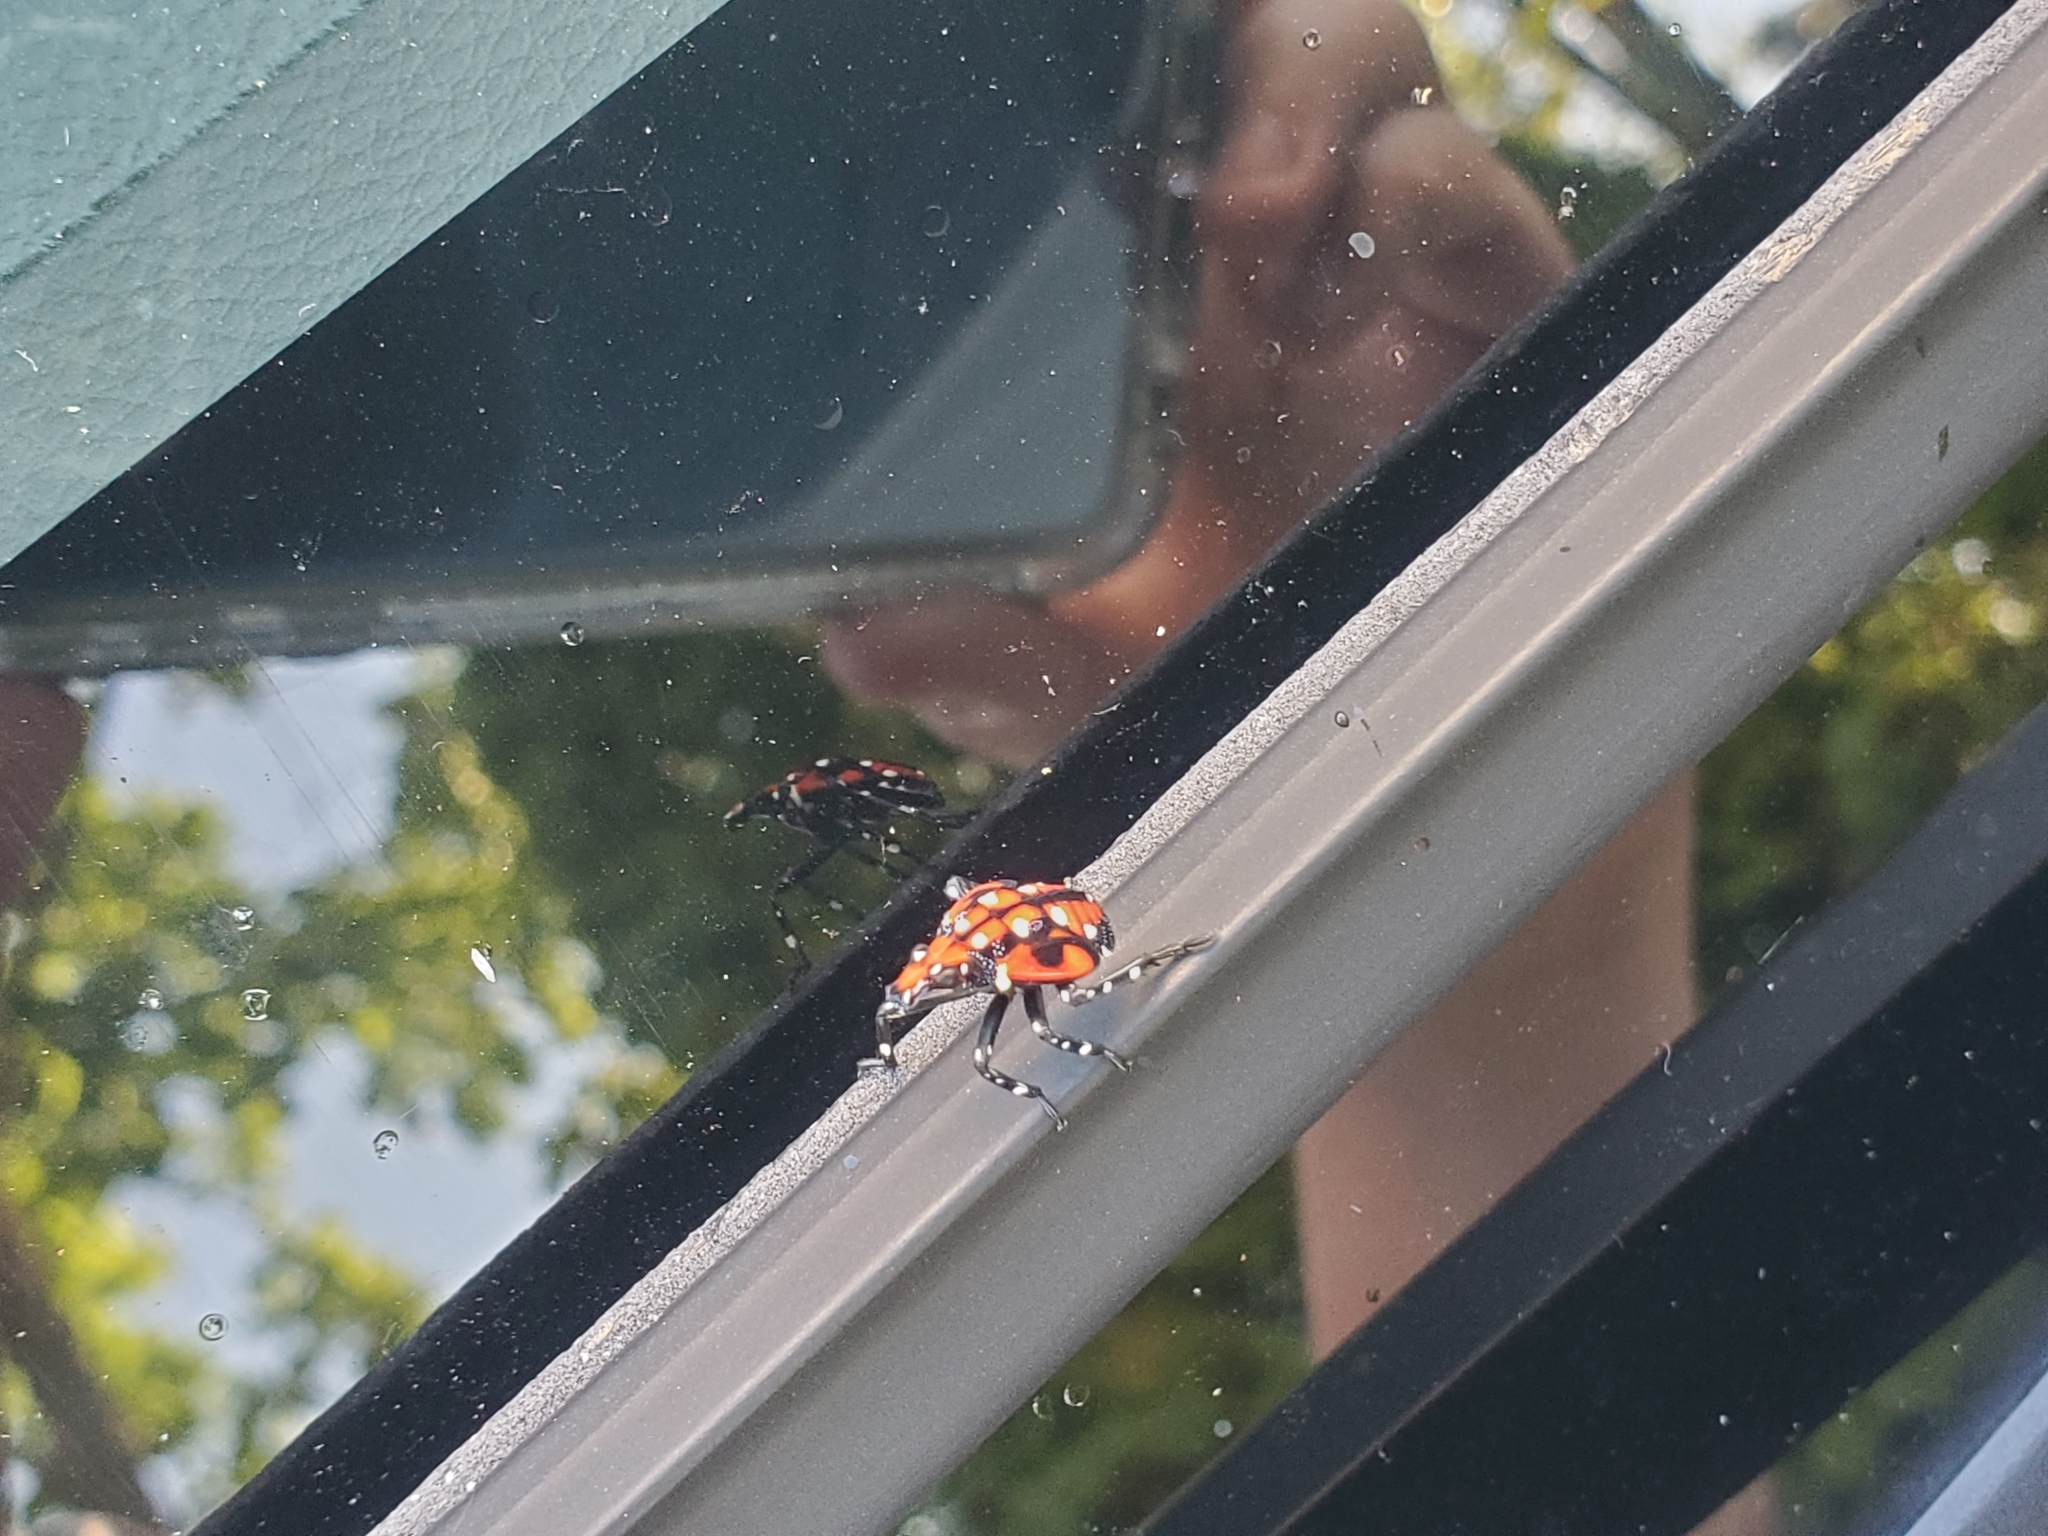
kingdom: Animalia
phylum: Arthropoda
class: Insecta
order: Hemiptera
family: Fulgoridae
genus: Lycorma
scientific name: Lycorma delicatula
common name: Spotted lanternfly
